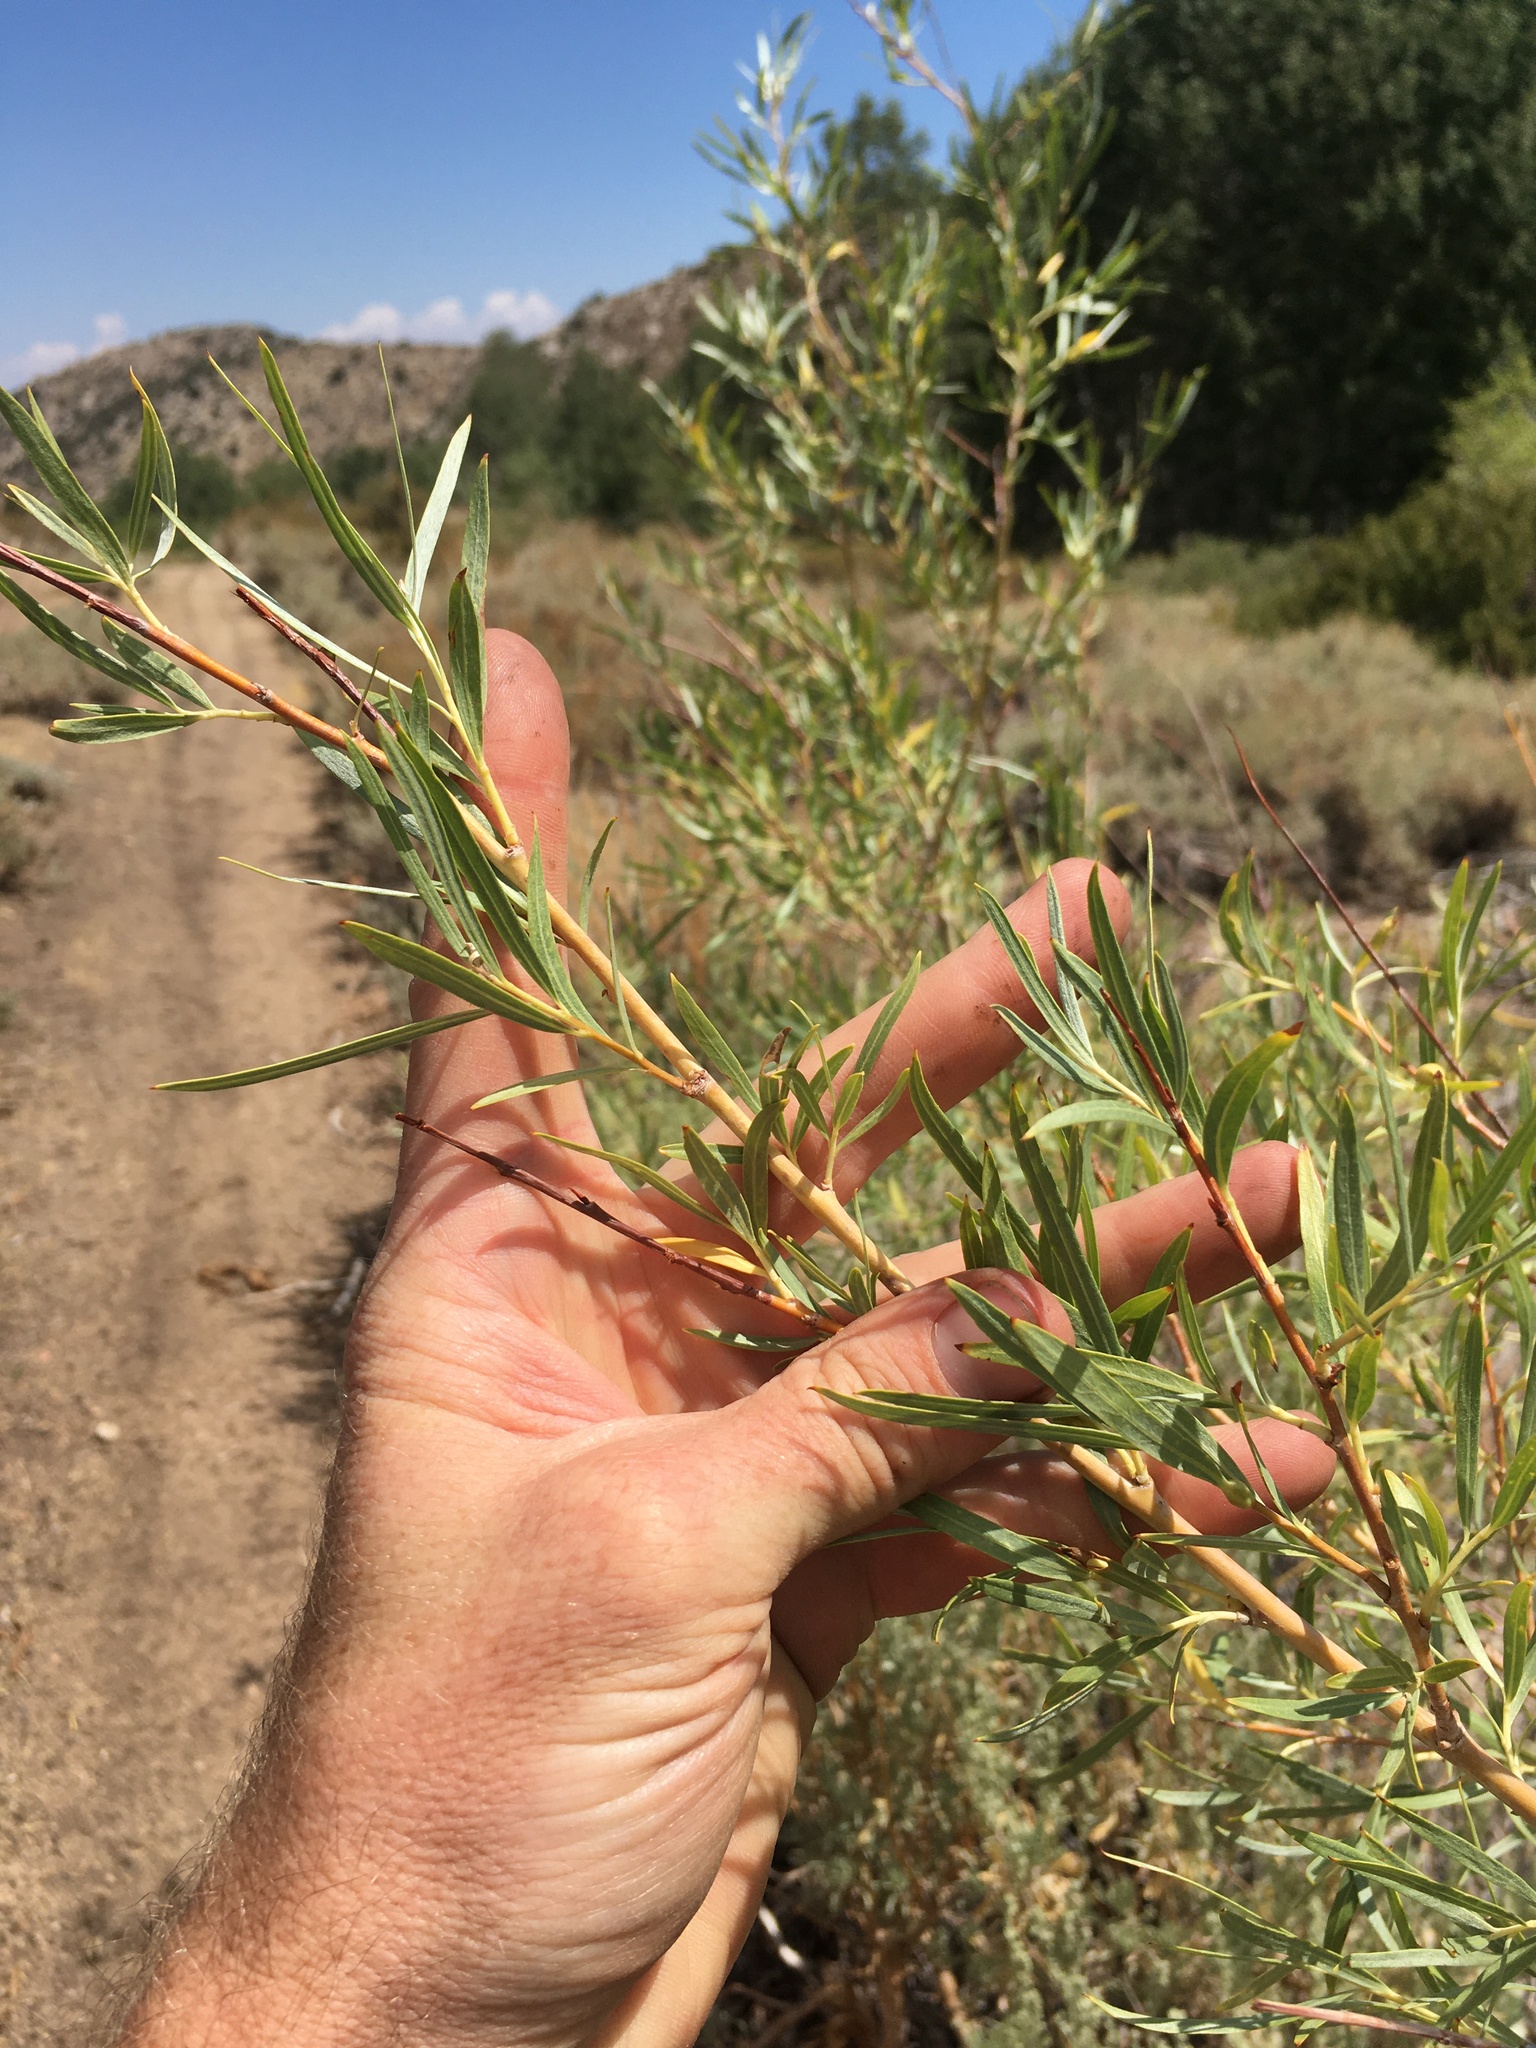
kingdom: Plantae
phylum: Tracheophyta
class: Magnoliopsida
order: Malpighiales
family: Salicaceae
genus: Salix
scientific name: Salix exigua
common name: Coyote willow
